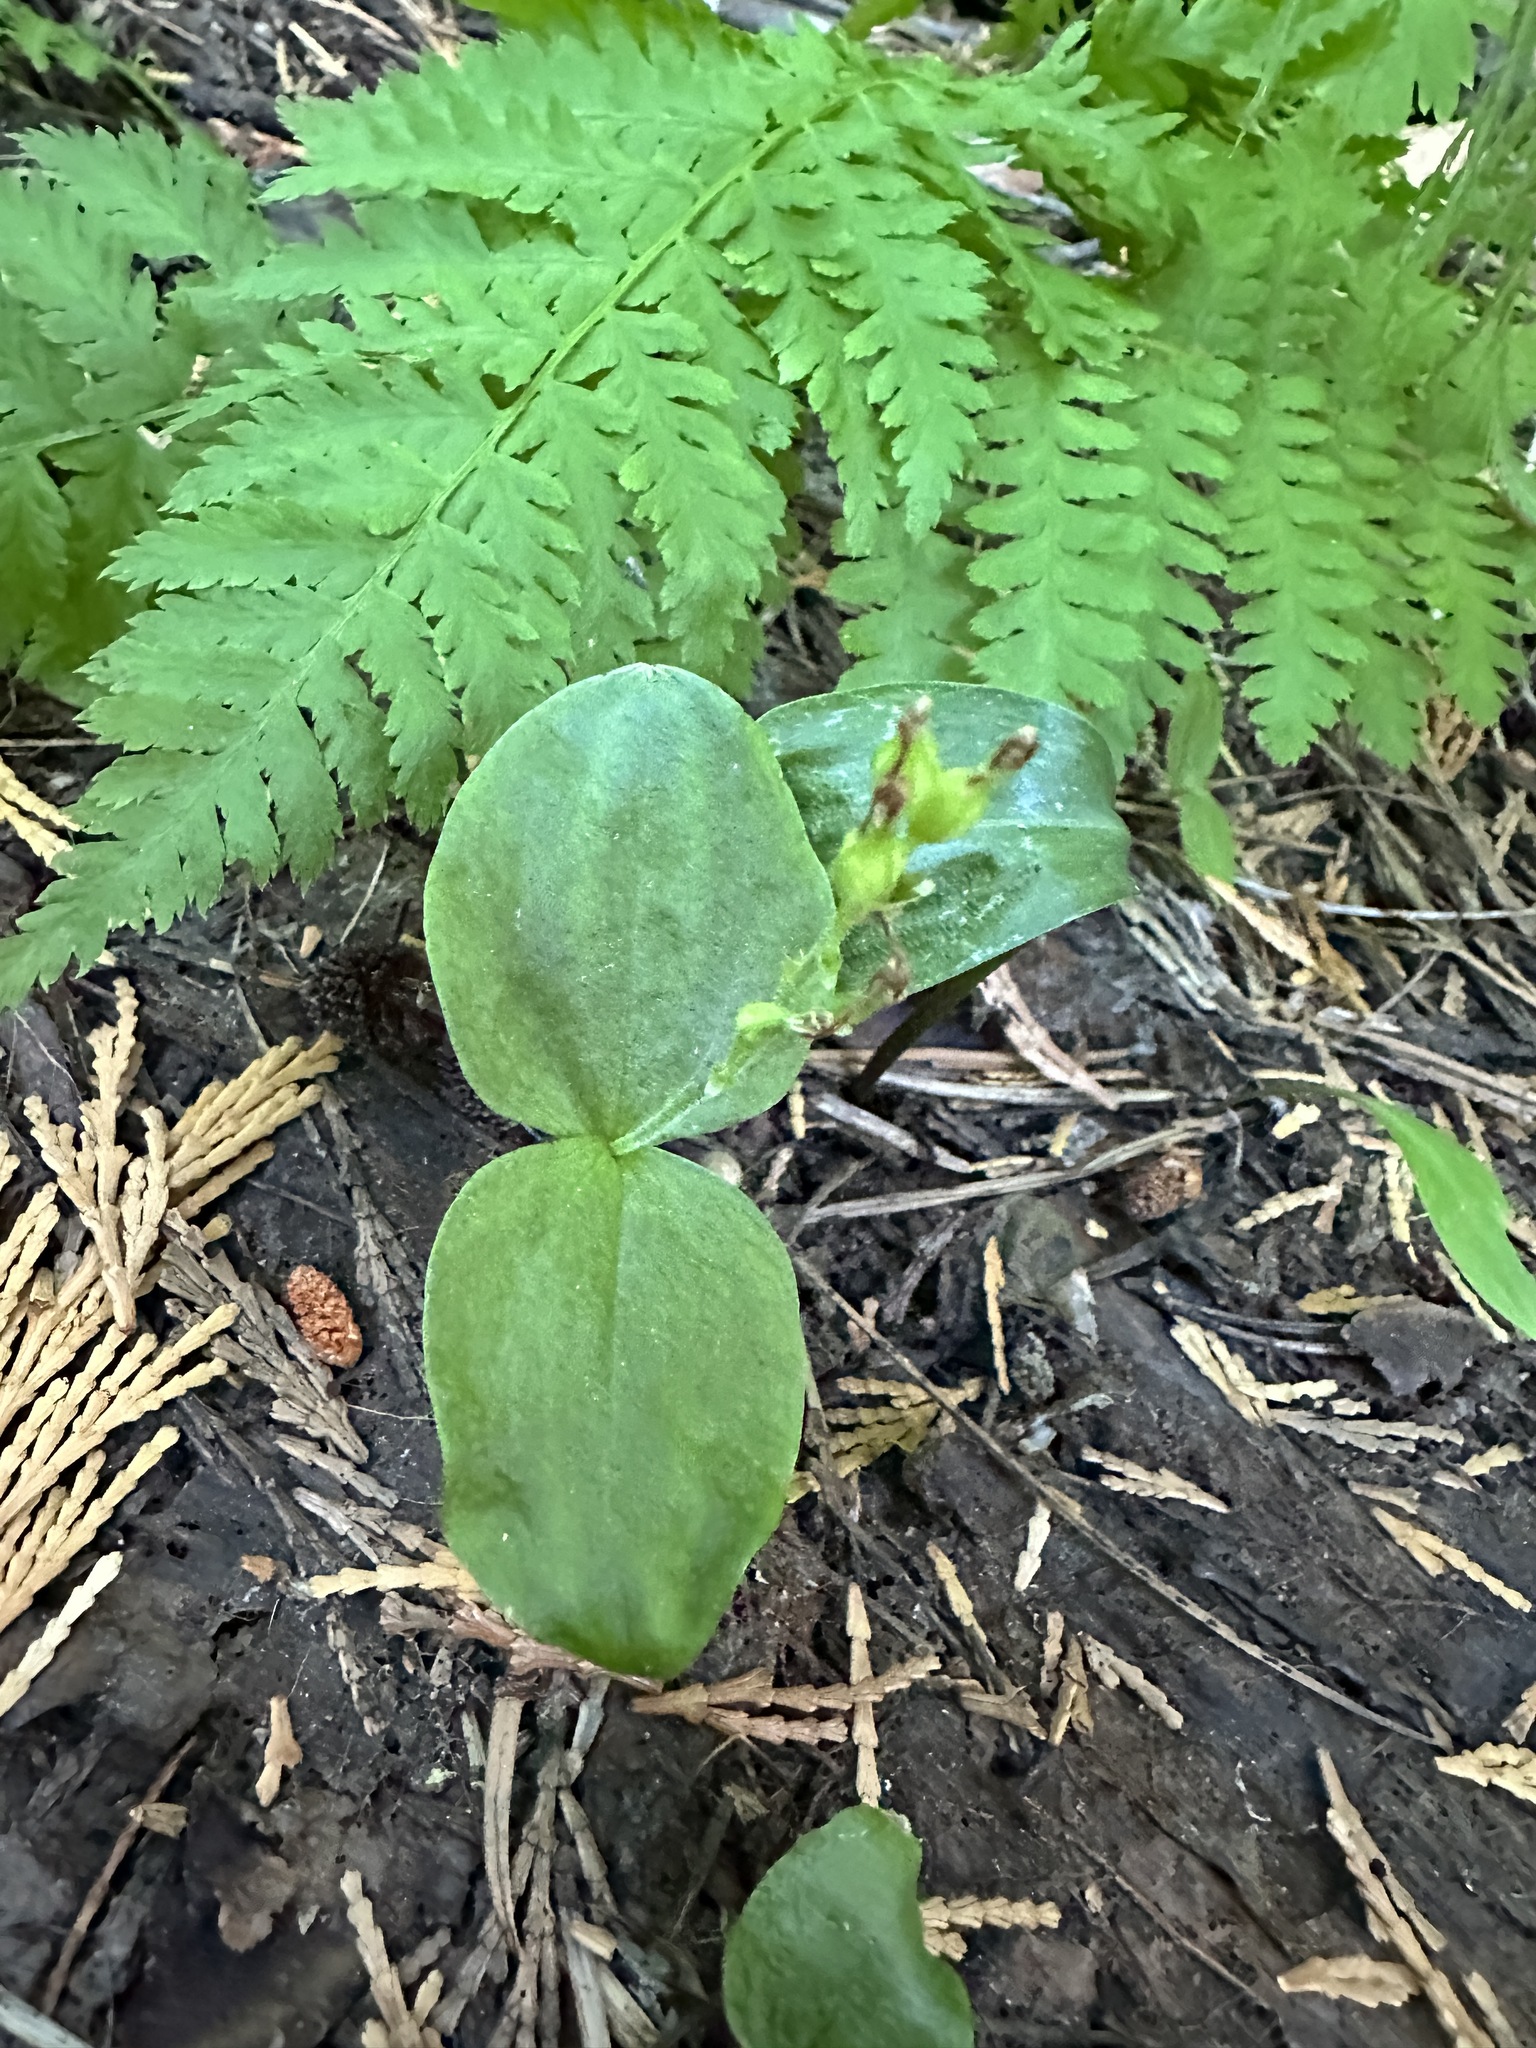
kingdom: Plantae
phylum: Tracheophyta
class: Liliopsida
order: Asparagales
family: Orchidaceae
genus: Neottia
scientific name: Neottia convallarioides
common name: Broadleaf twayblade
